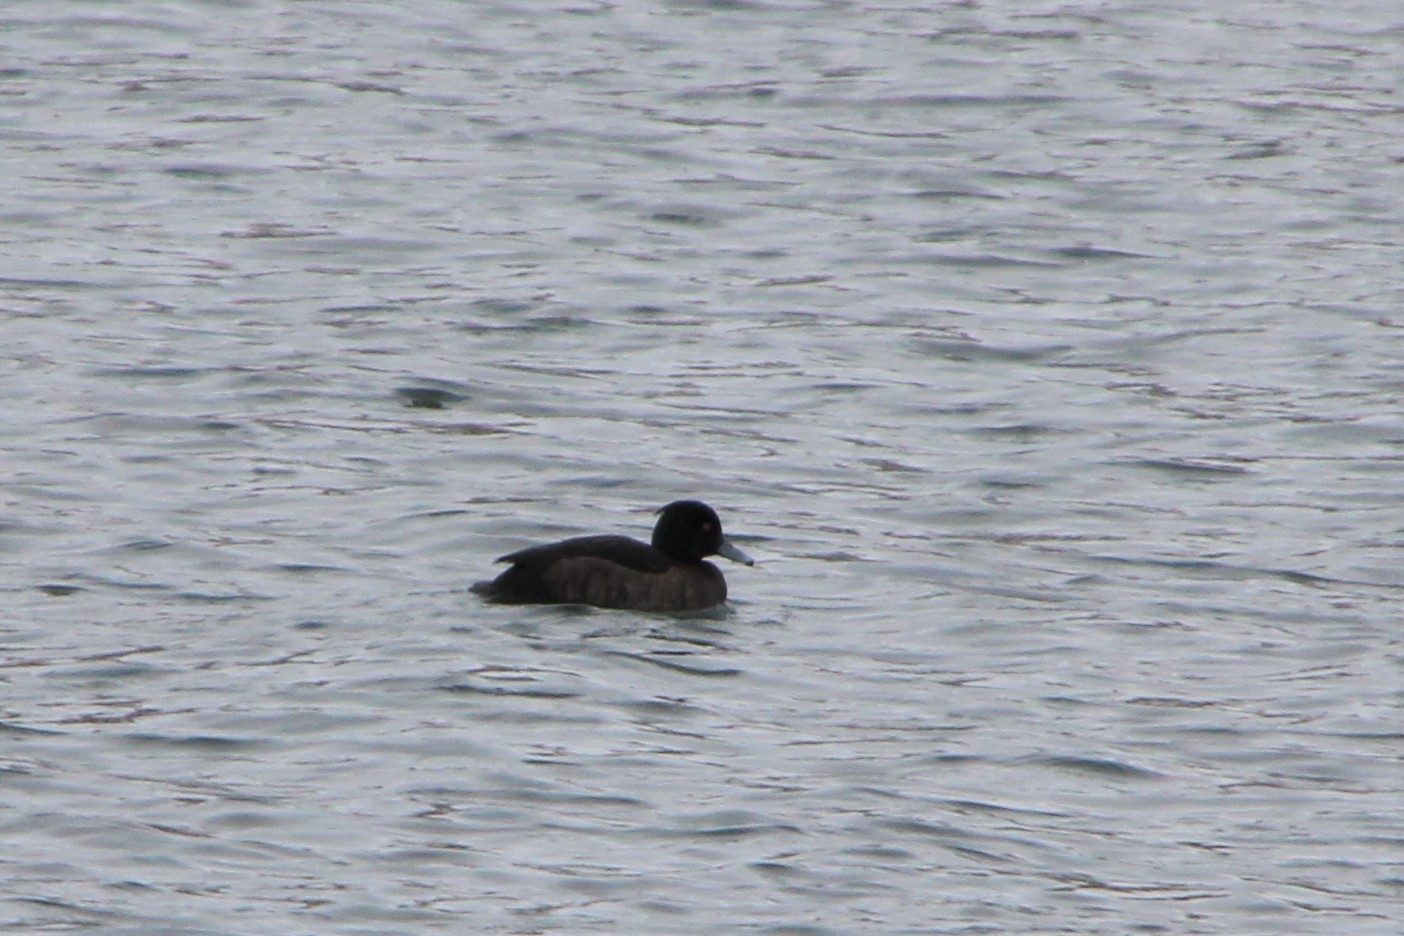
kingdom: Animalia
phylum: Chordata
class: Aves
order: Anseriformes
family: Anatidae
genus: Aythya
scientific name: Aythya fuligula
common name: Tufted duck
